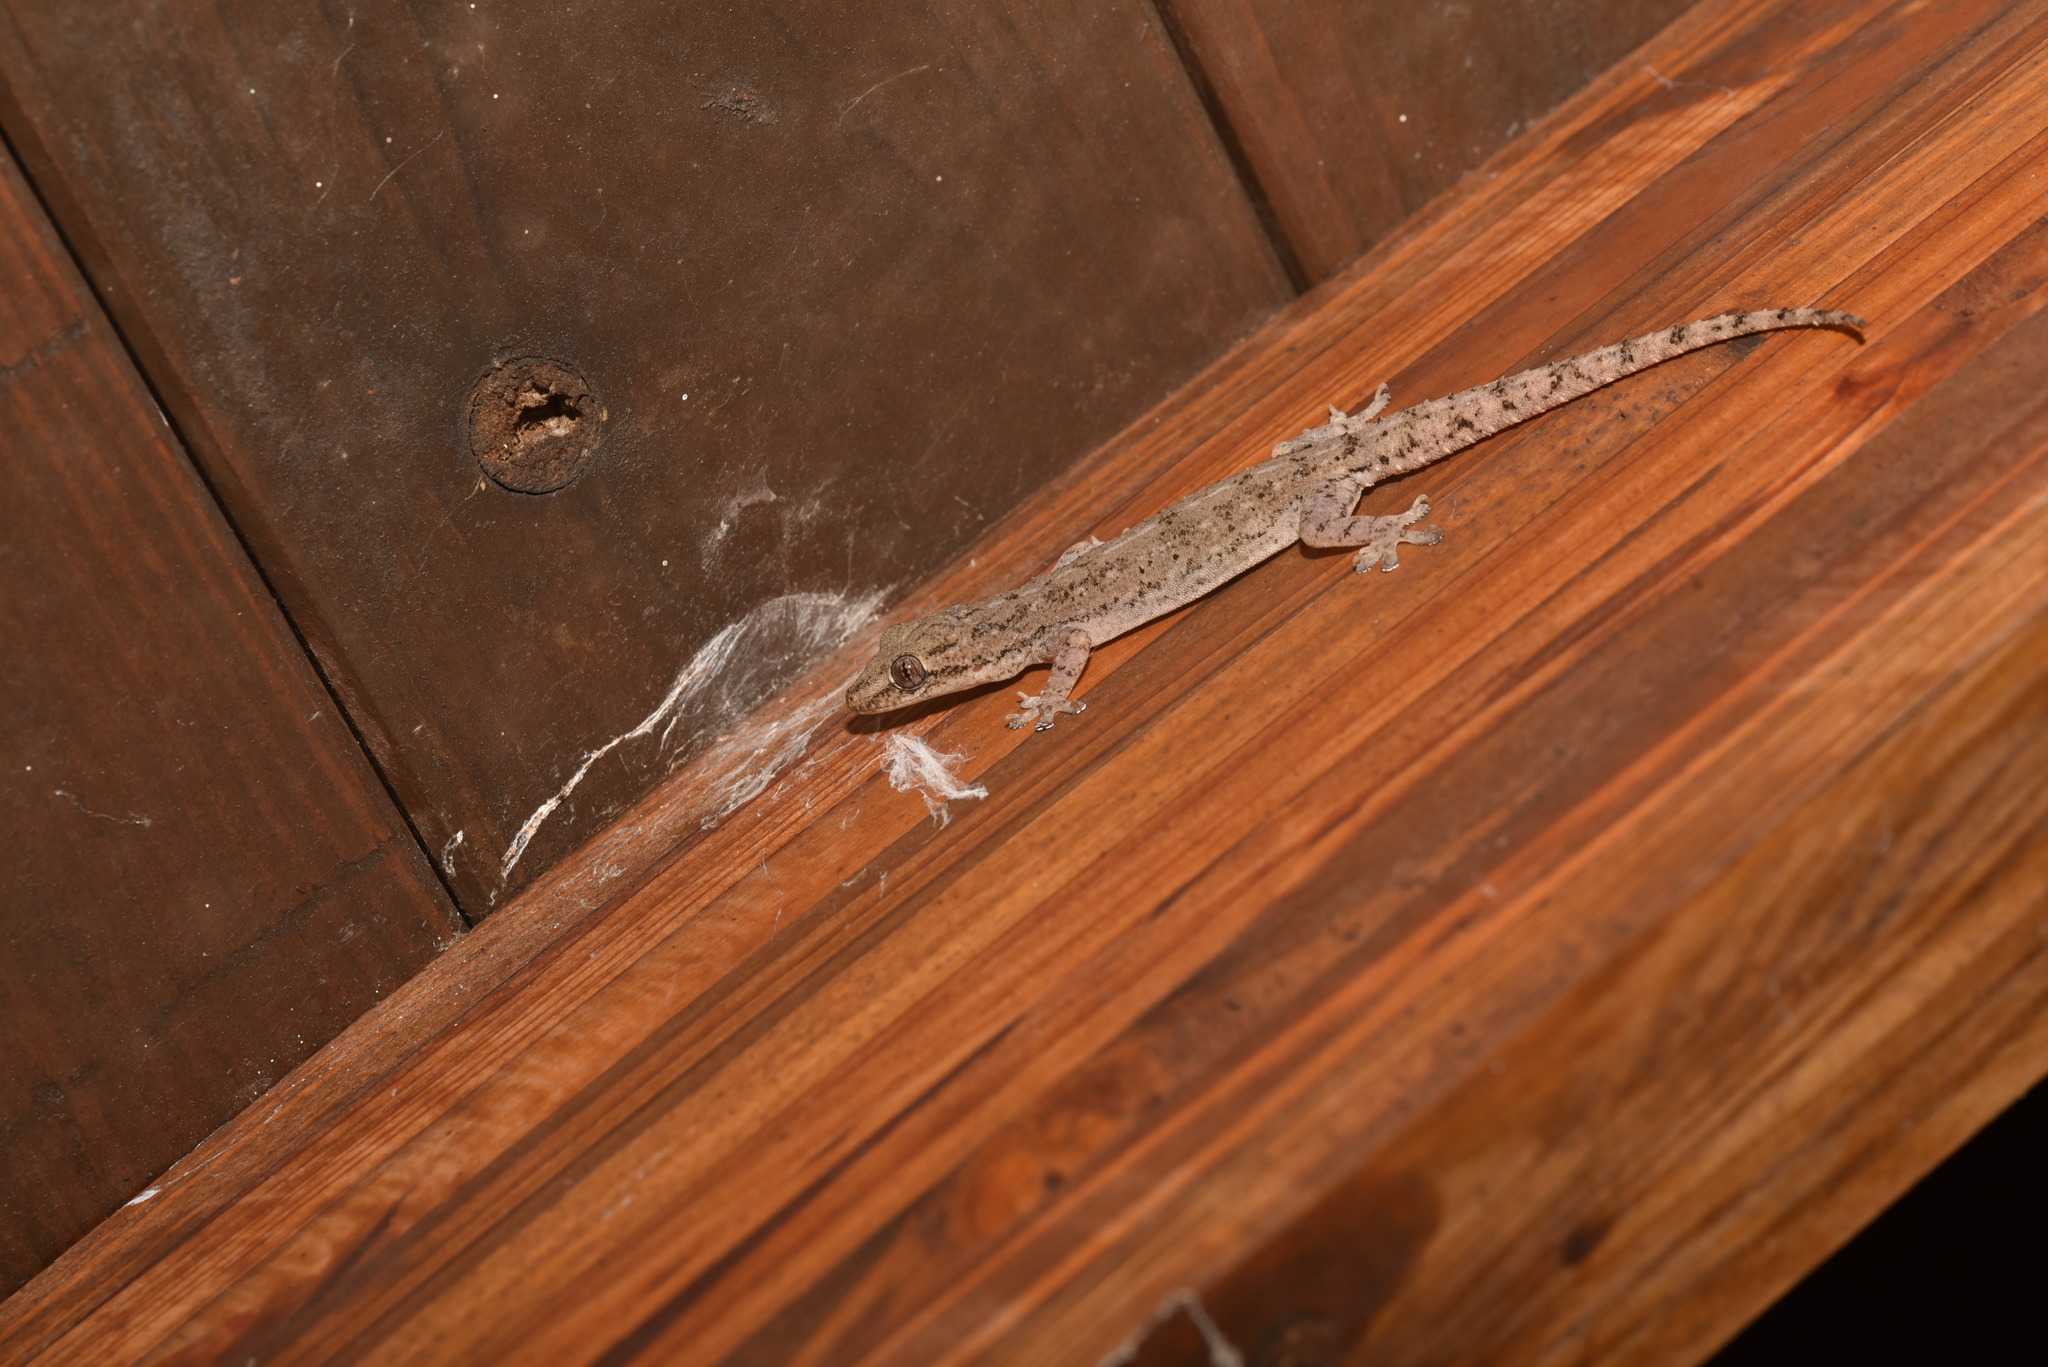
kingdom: Animalia
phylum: Chordata
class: Squamata
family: Gekkonidae
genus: Hemidactylus
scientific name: Hemidactylus frenatus
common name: Common house gecko
